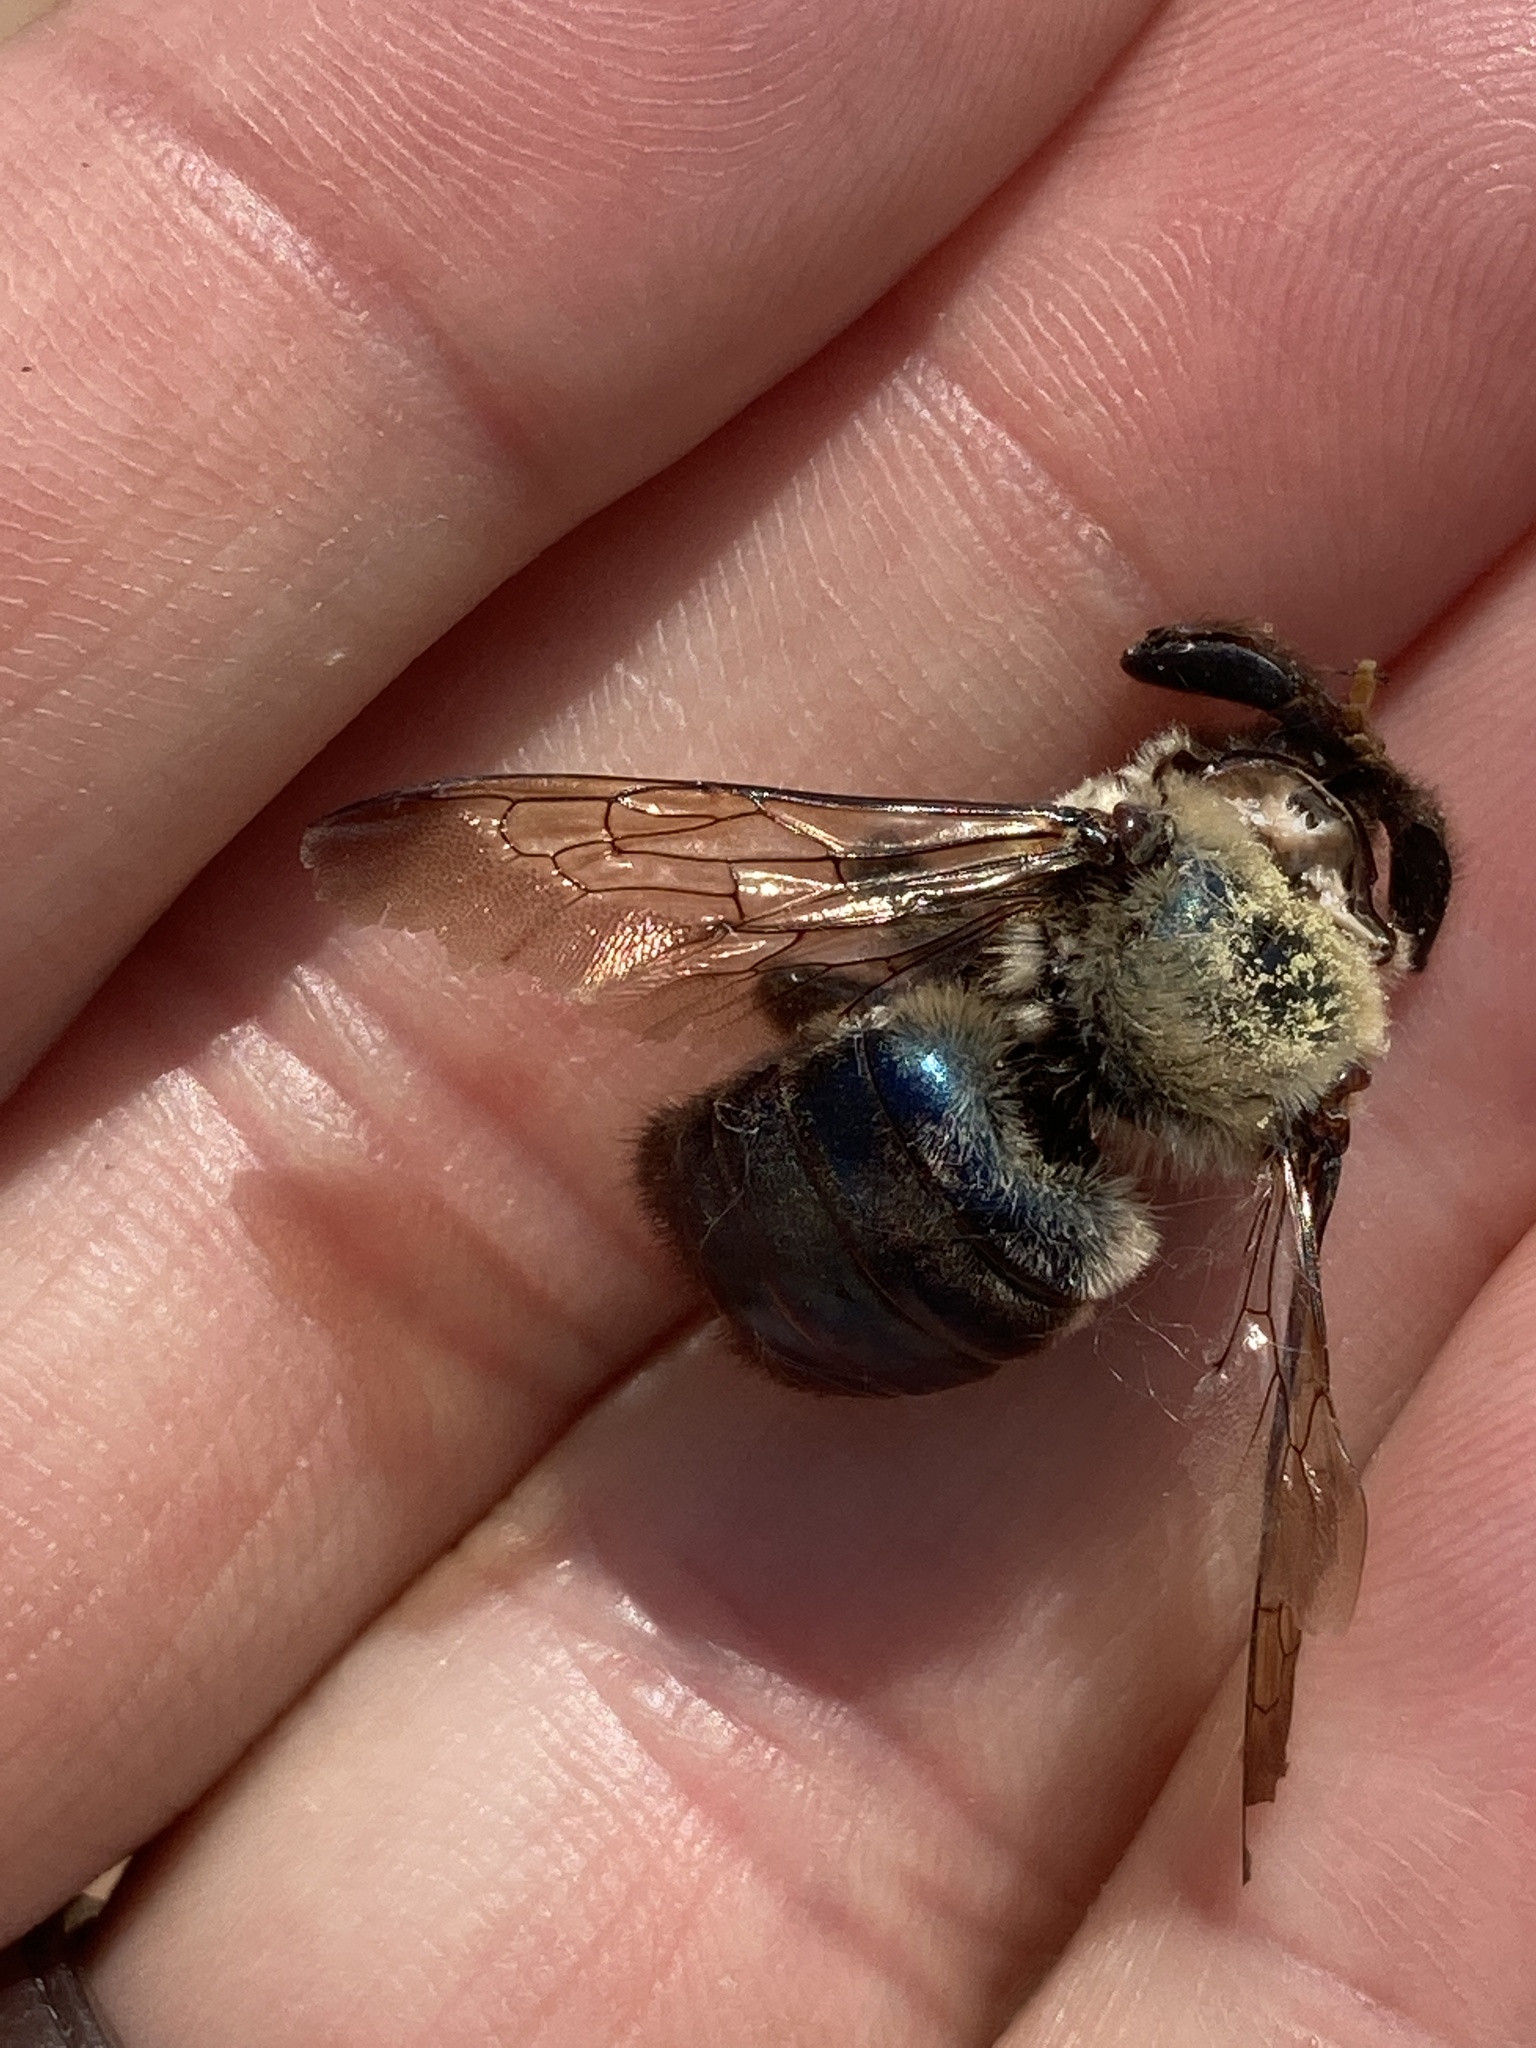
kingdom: Animalia
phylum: Arthropoda
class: Insecta
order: Hymenoptera
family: Apidae
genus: Xylocopa
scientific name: Xylocopa virginica
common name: Carpenter bee
